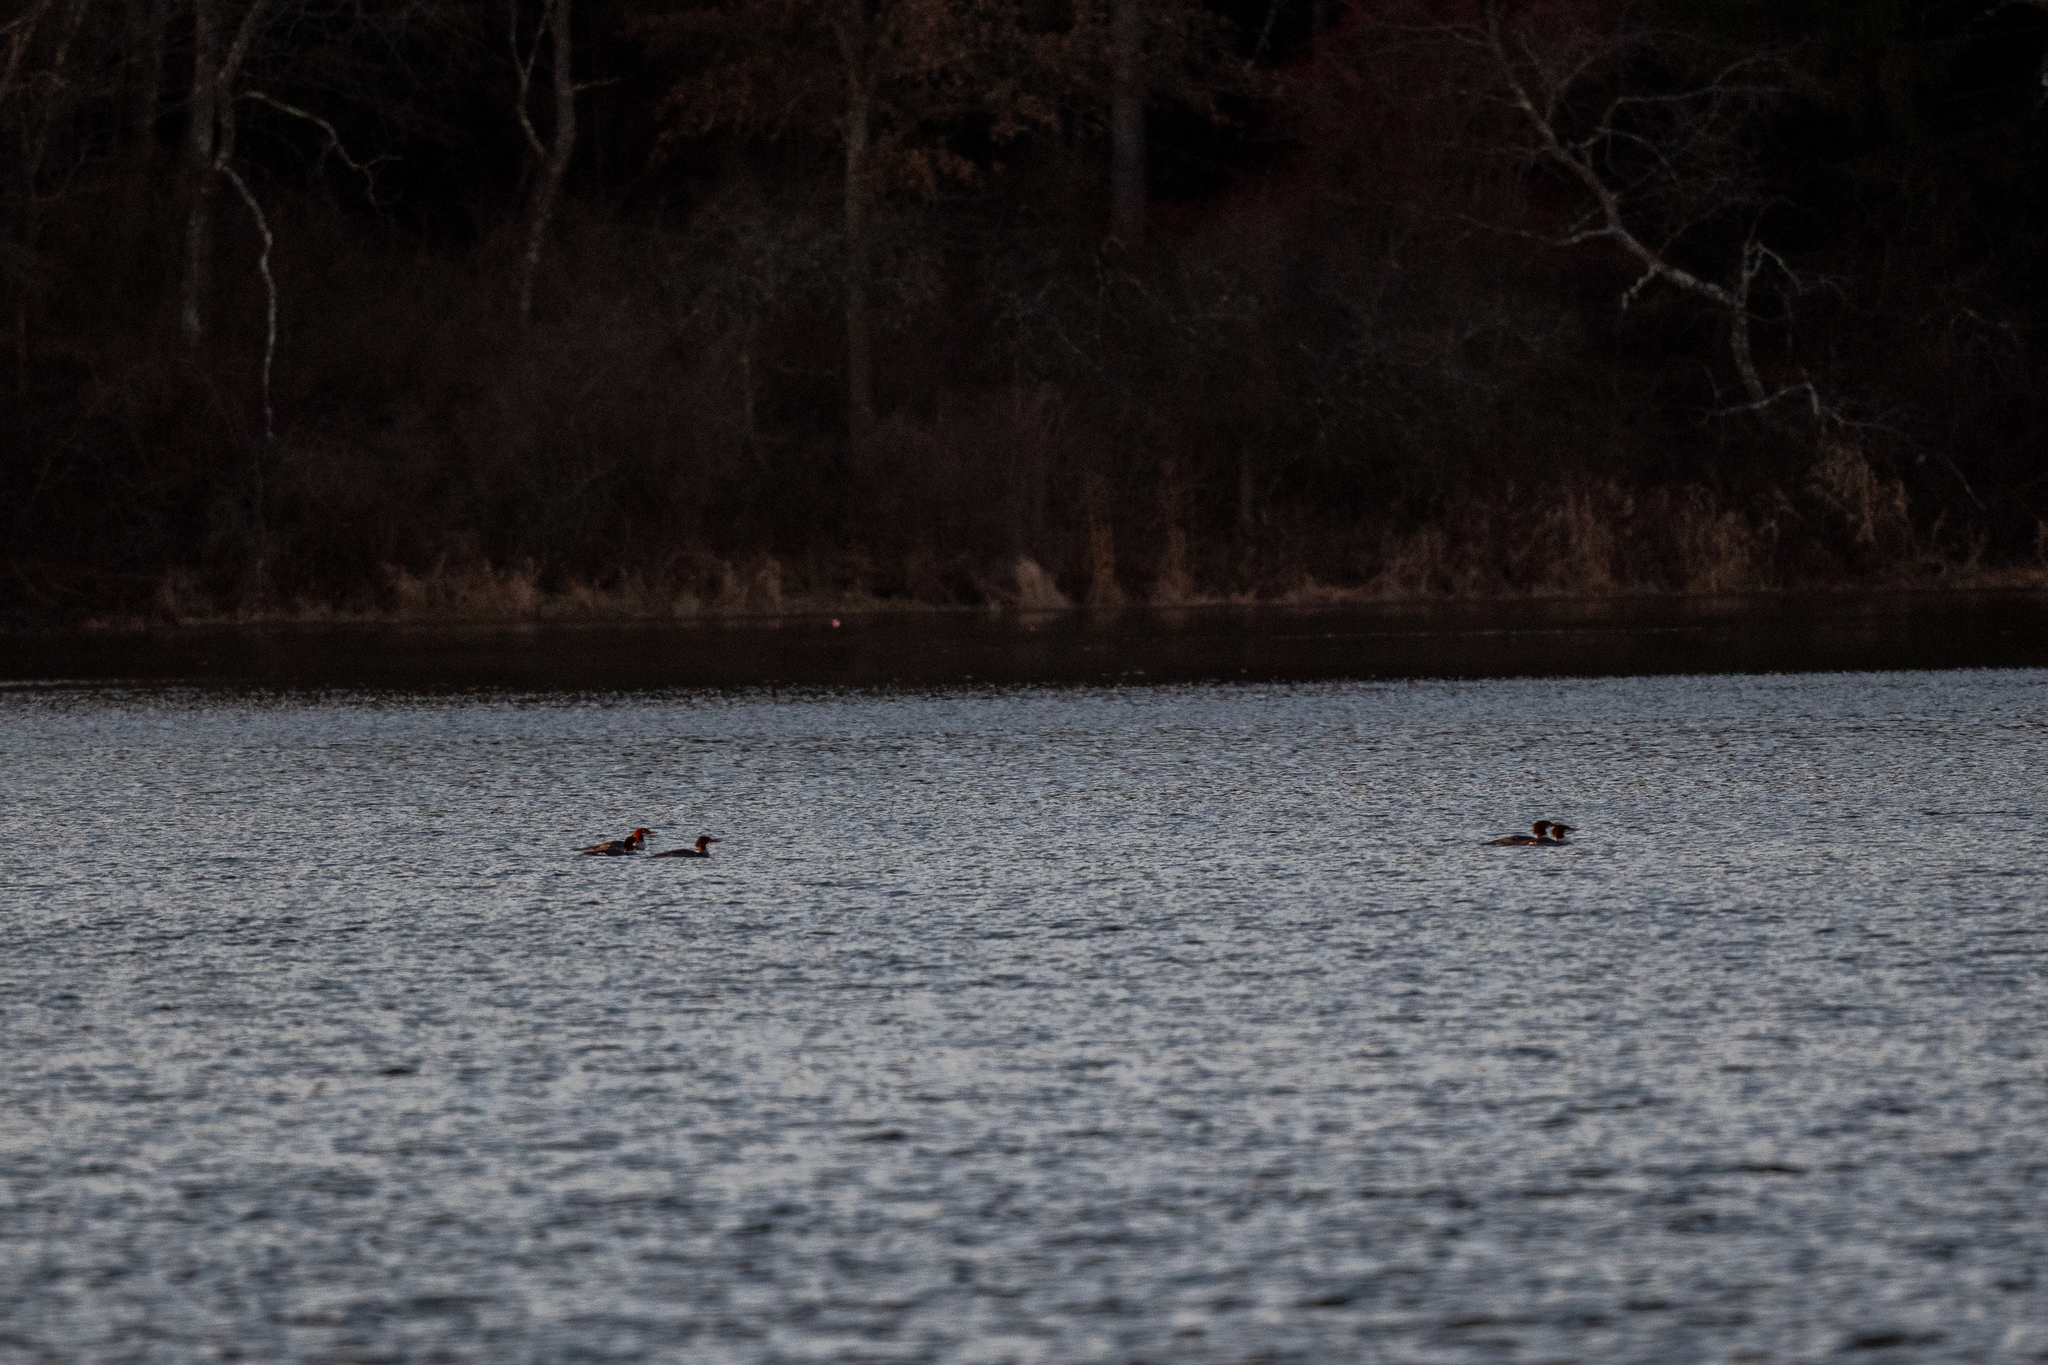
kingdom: Animalia
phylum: Chordata
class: Aves
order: Anseriformes
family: Anatidae
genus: Mergus
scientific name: Mergus merganser
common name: Common merganser
